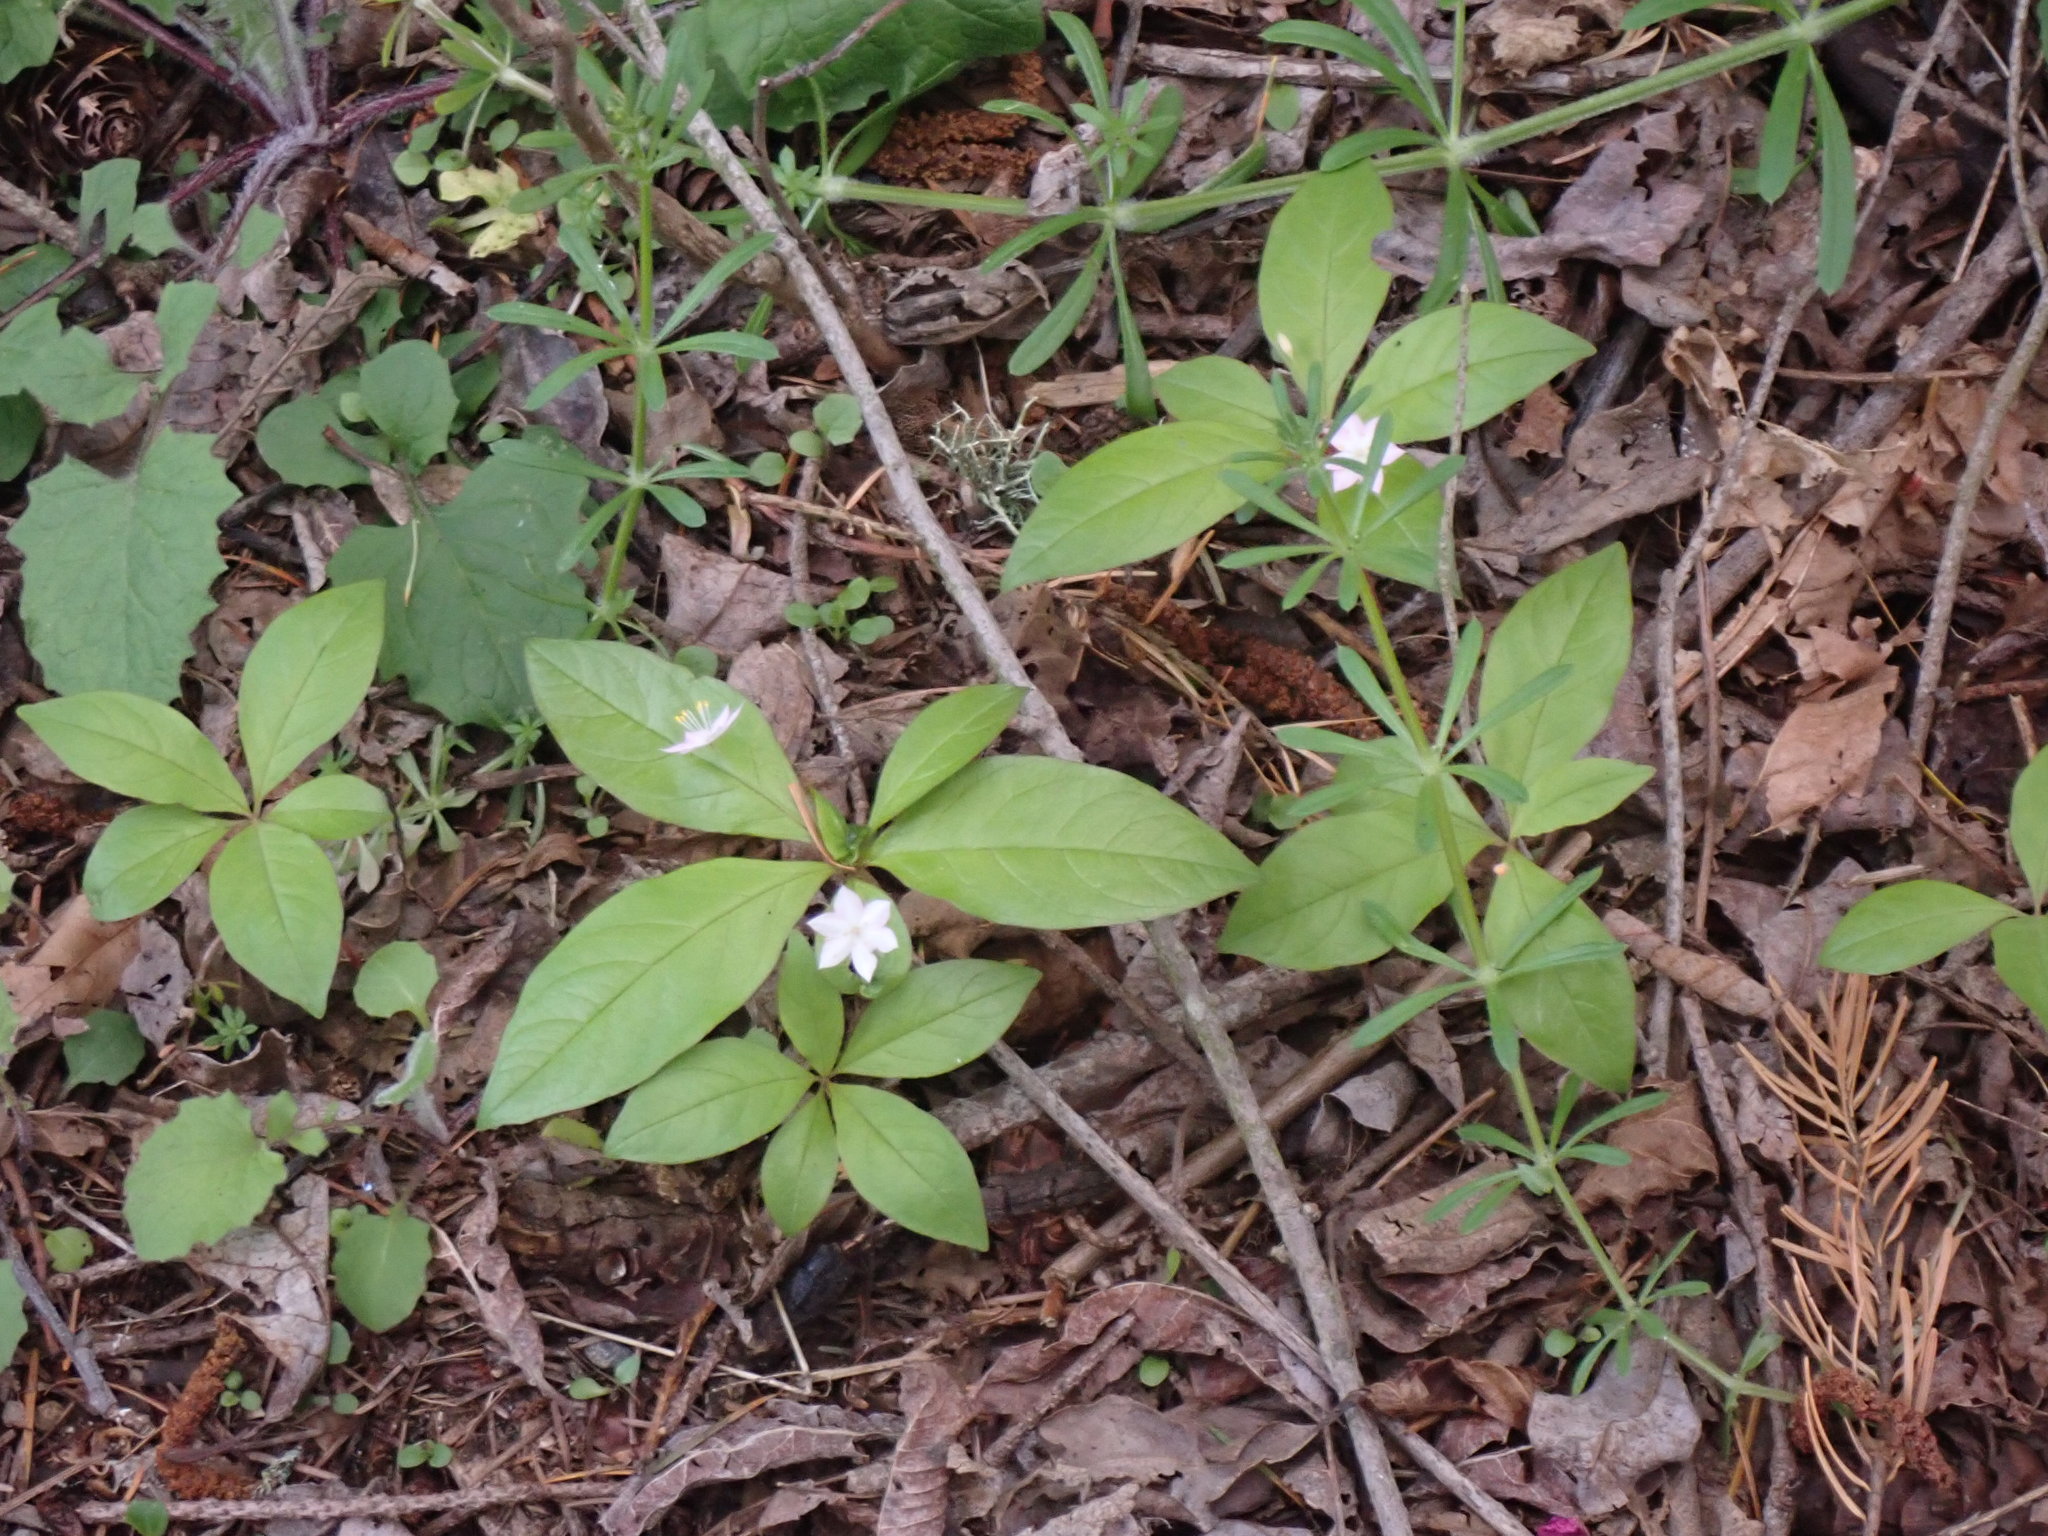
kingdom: Plantae
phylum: Tracheophyta
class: Magnoliopsida
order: Ericales
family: Primulaceae
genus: Lysimachia
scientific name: Lysimachia latifolia
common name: Pacific starflower
